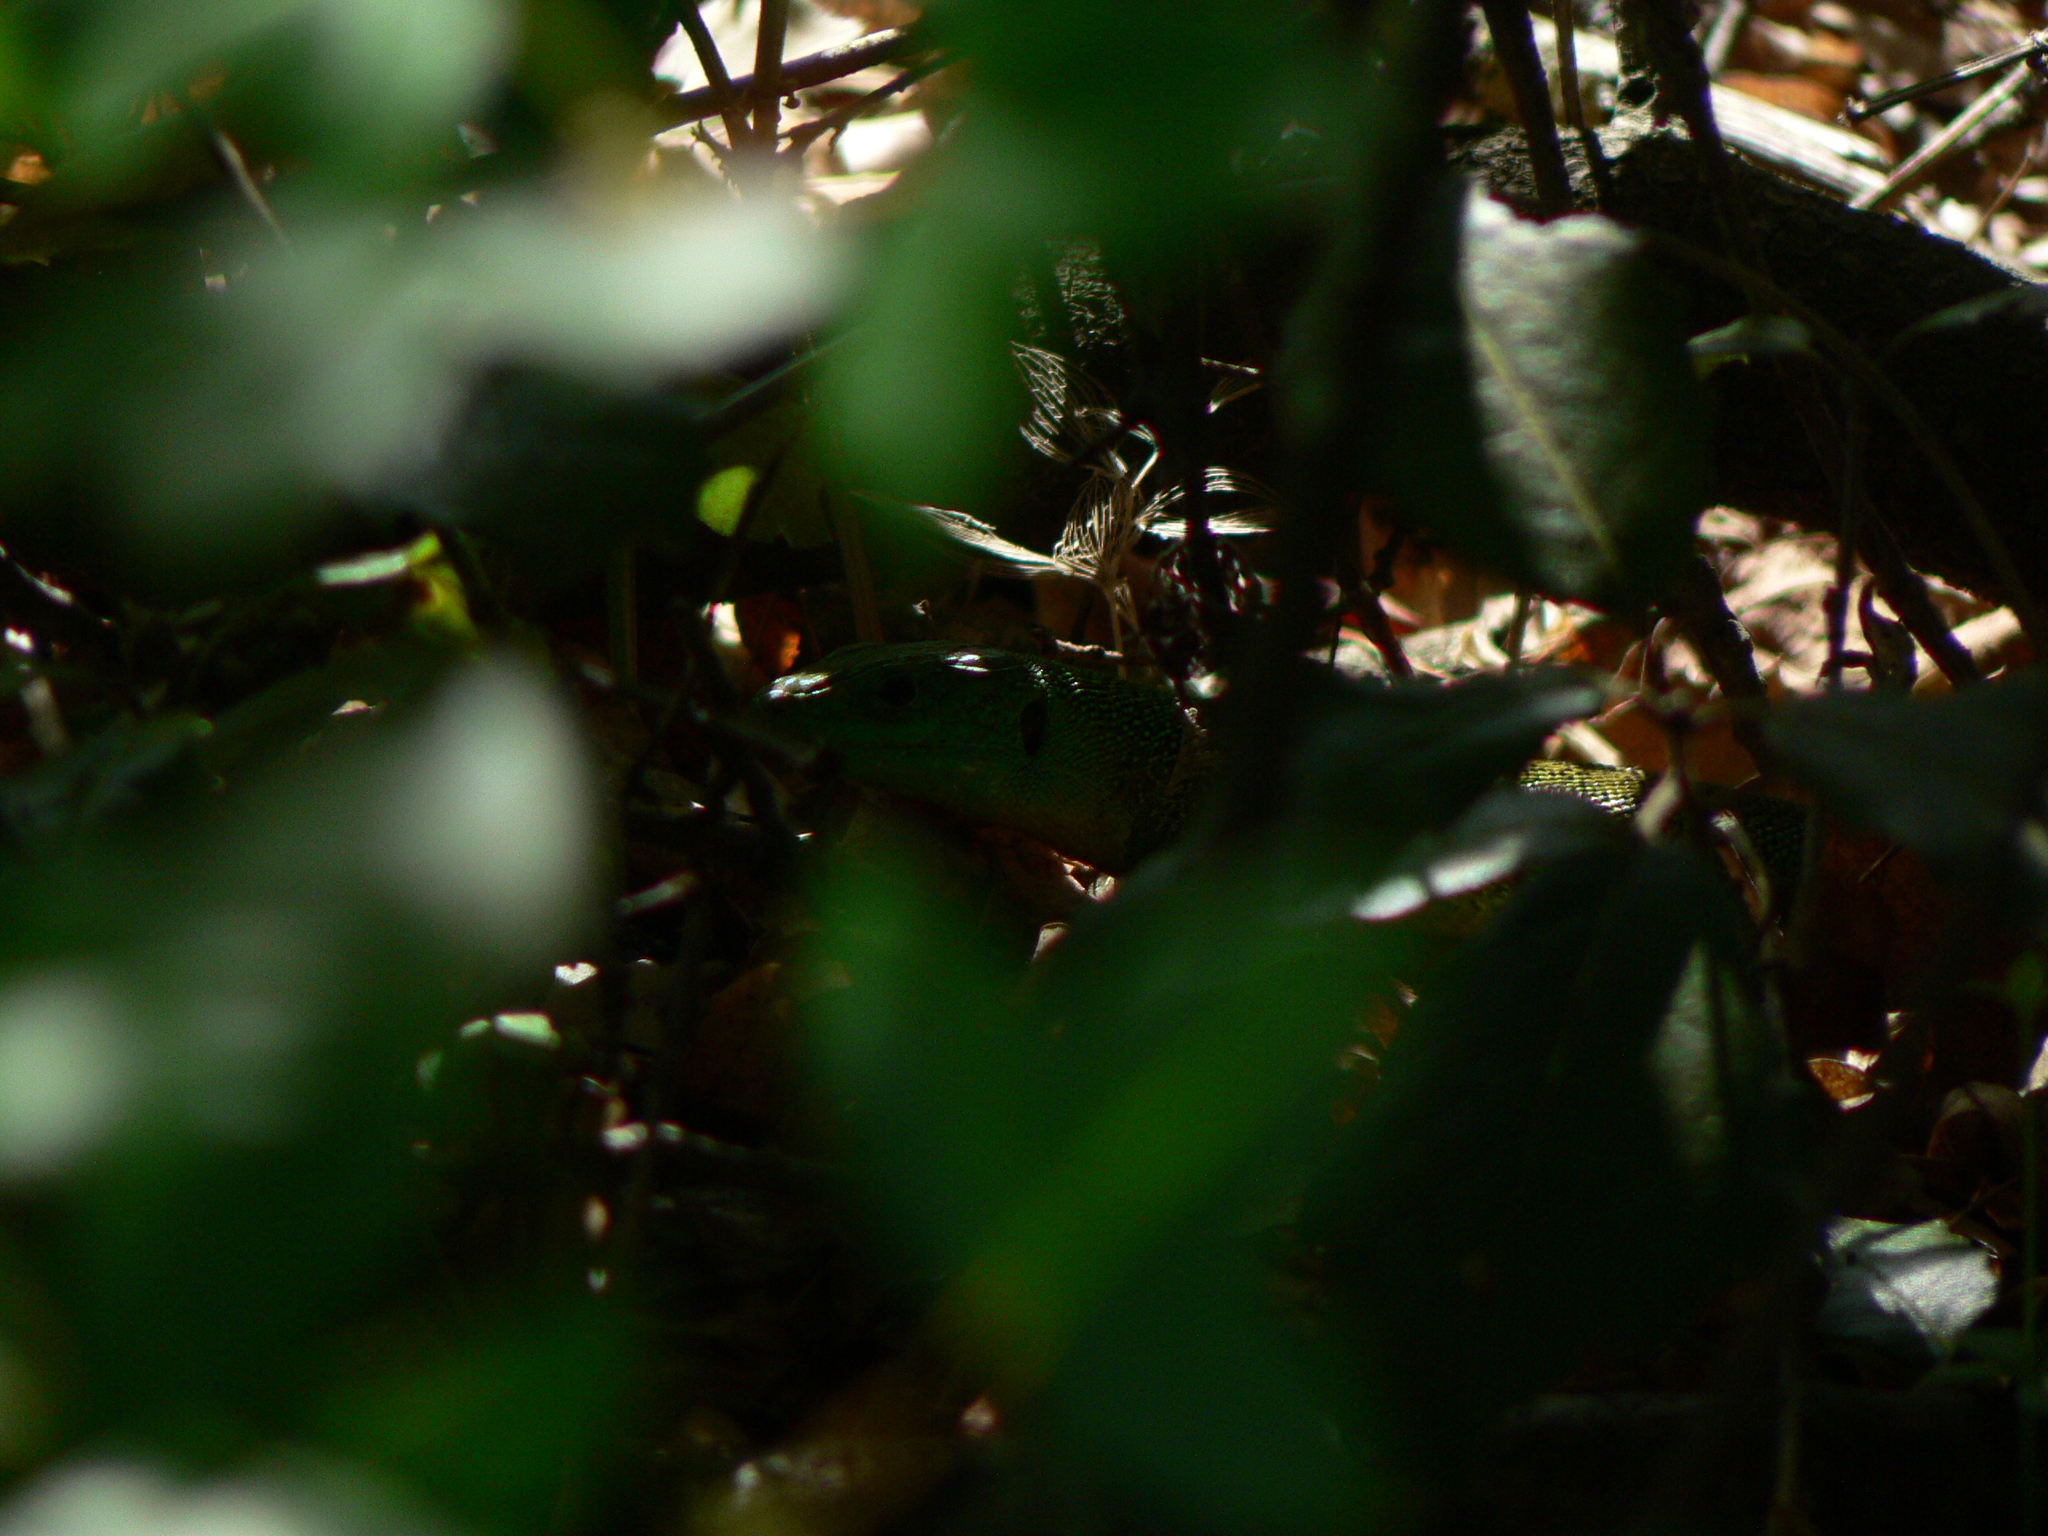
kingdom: Animalia
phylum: Chordata
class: Squamata
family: Lacertidae
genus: Lacerta
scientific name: Lacerta bilineata
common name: Western green lizard
